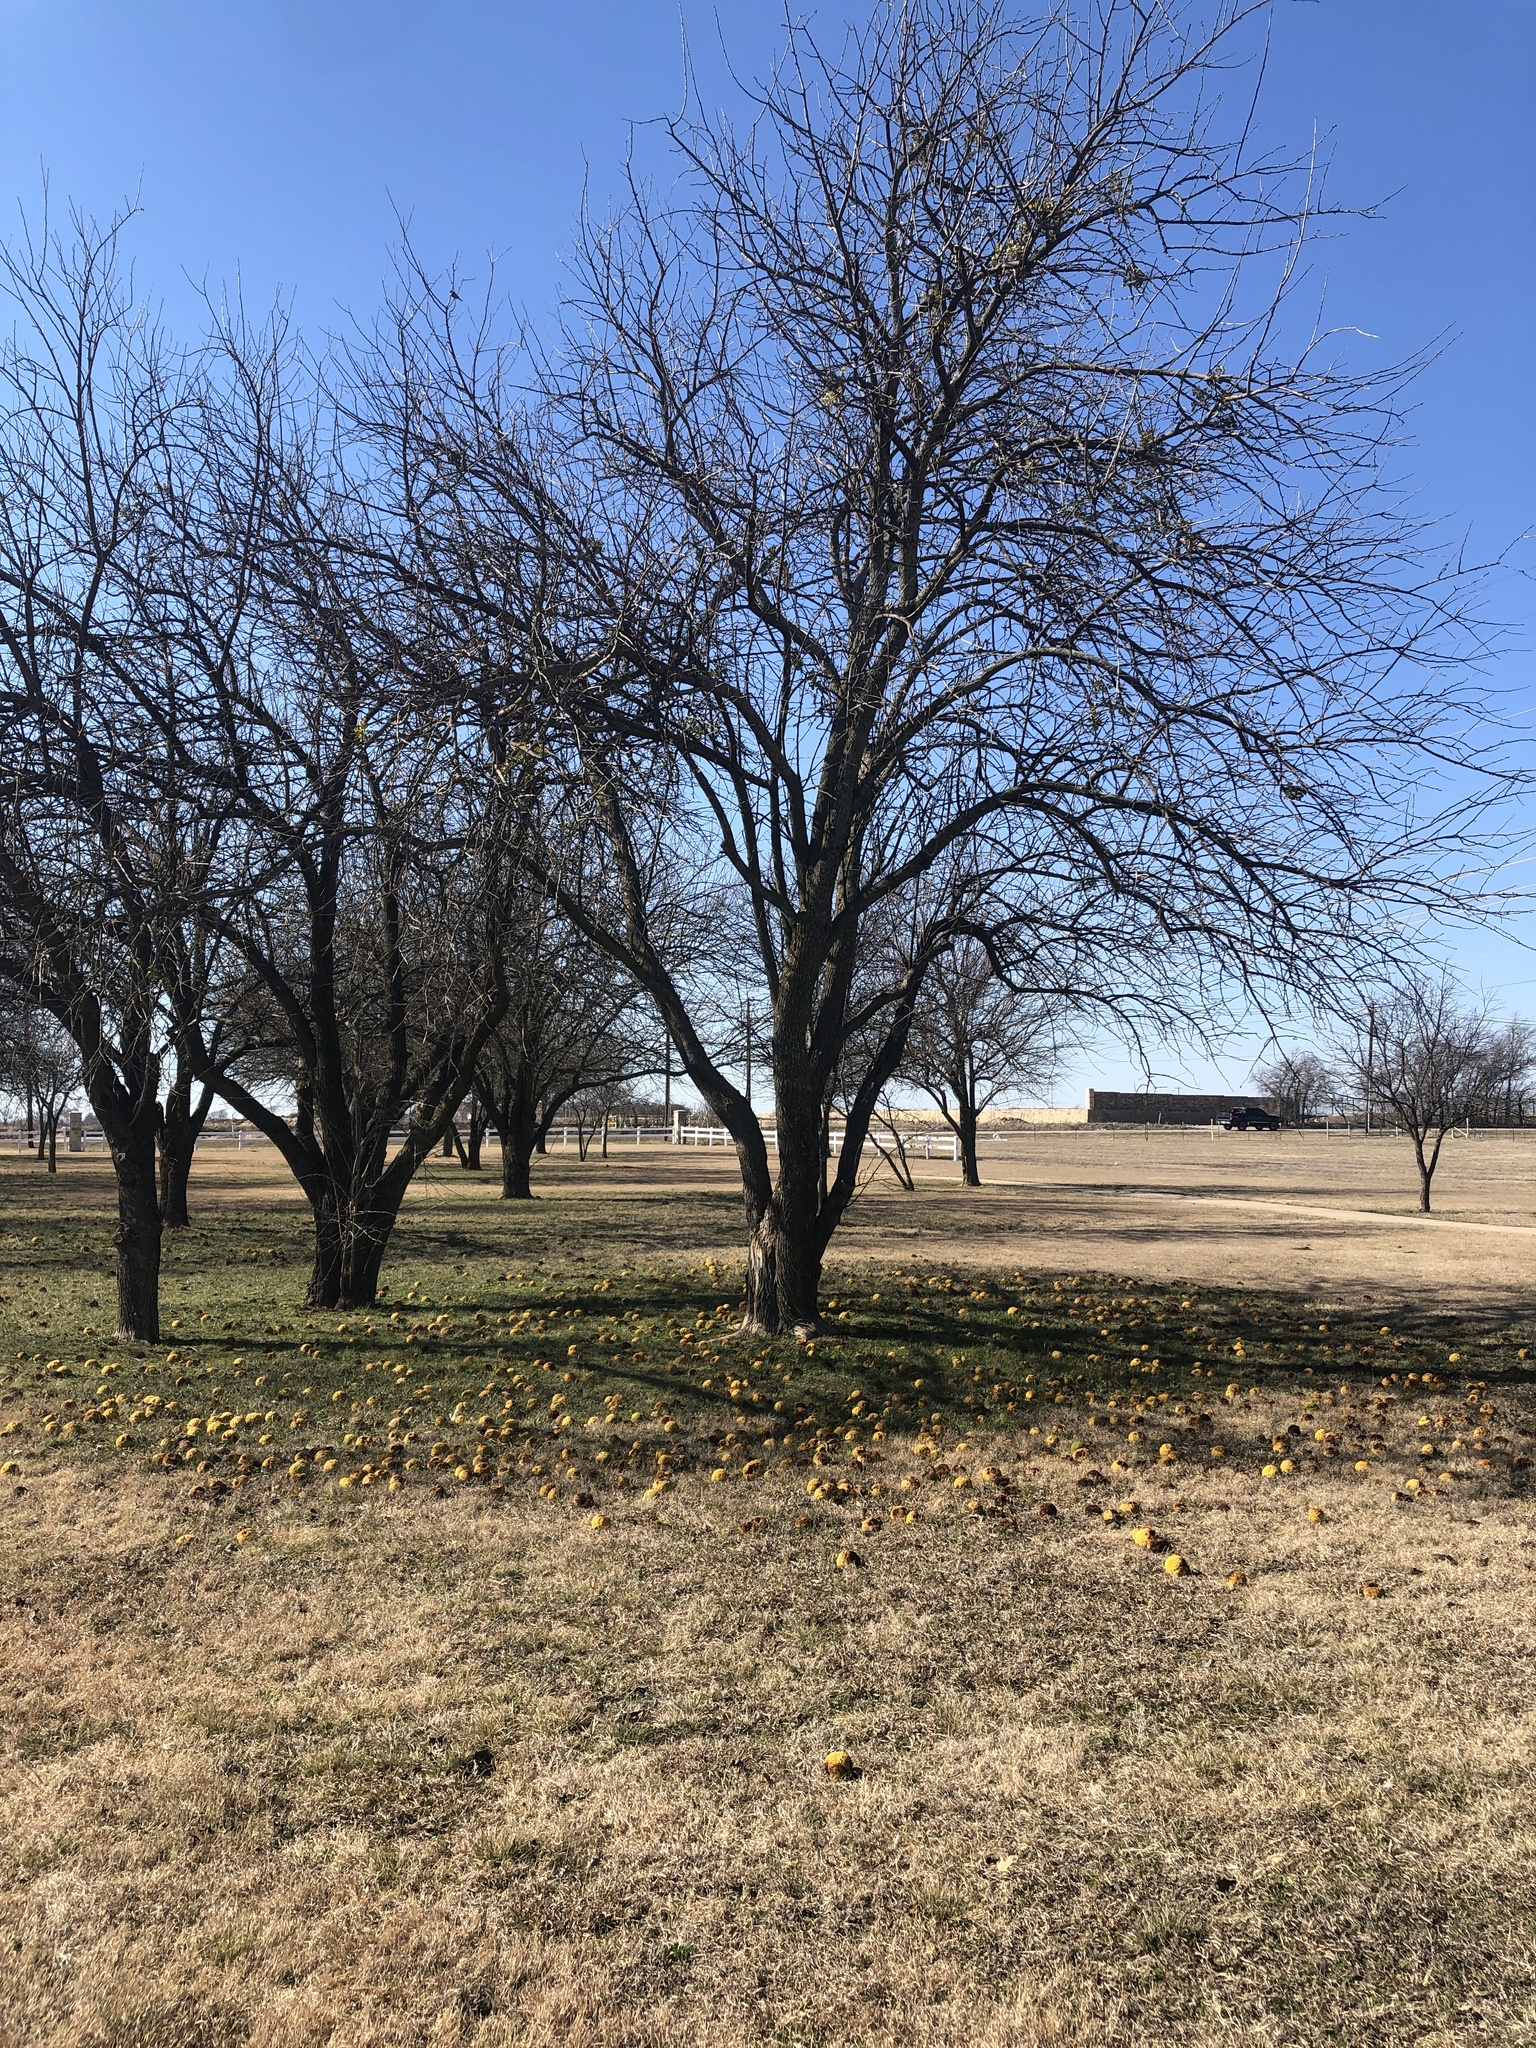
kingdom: Plantae
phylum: Tracheophyta
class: Magnoliopsida
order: Rosales
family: Moraceae
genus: Maclura
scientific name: Maclura pomifera
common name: Osage-orange
